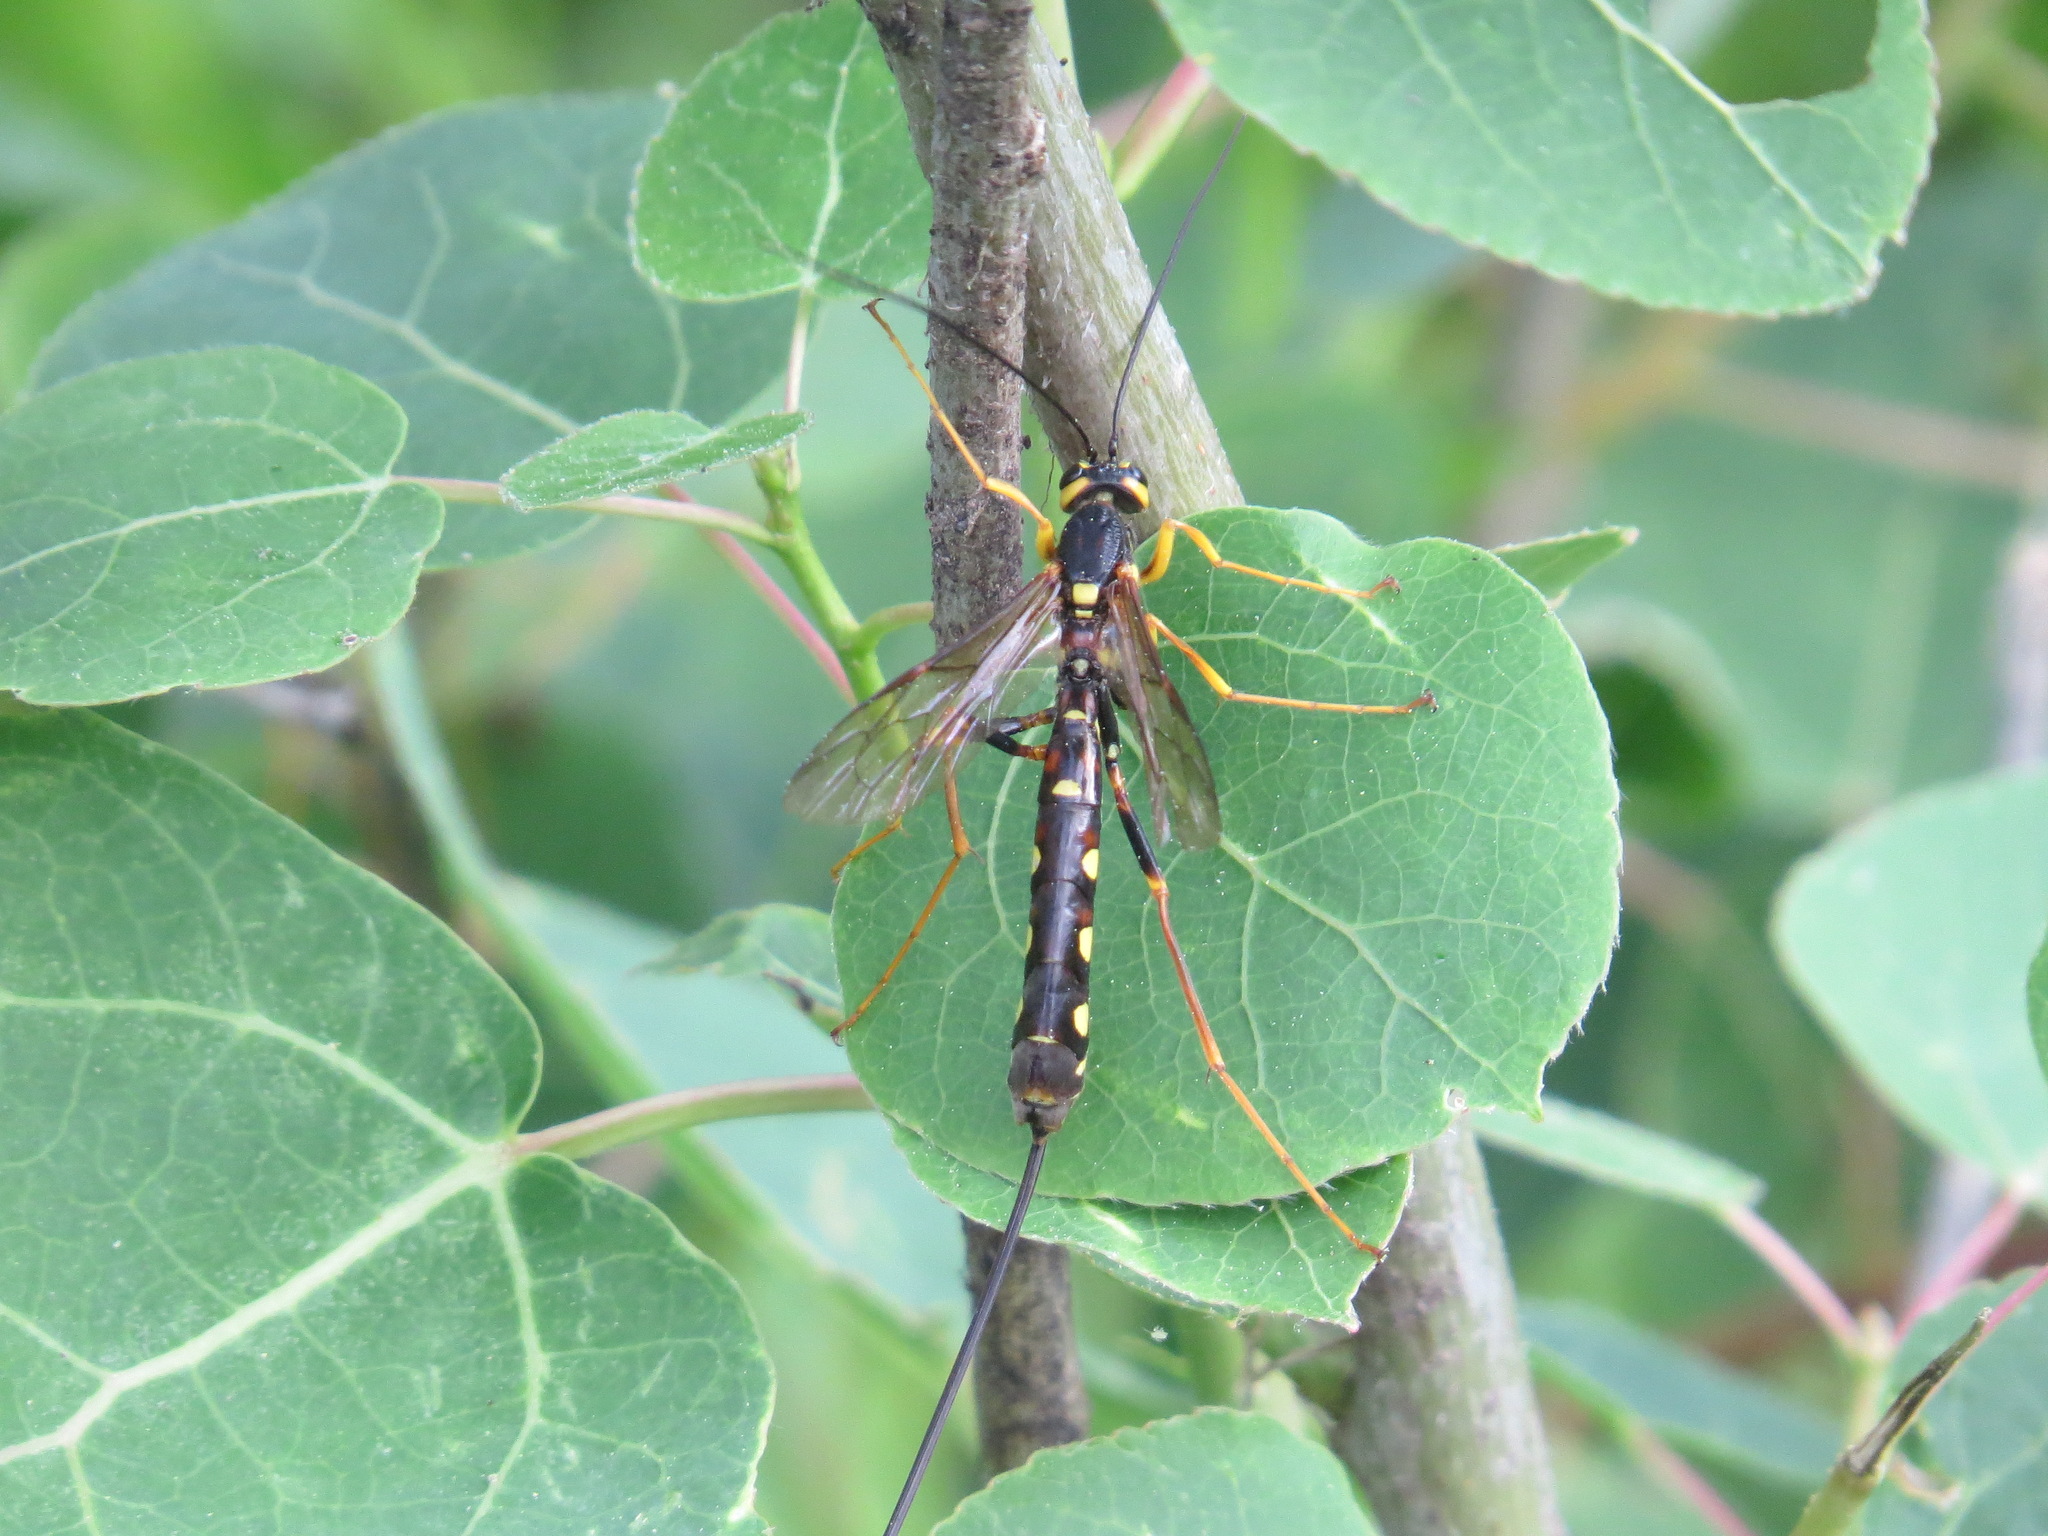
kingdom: Animalia
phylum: Arthropoda
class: Insecta
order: Hymenoptera
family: Ichneumonidae
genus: Megarhyssa
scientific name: Megarhyssa nortoni
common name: Norton's giant ichneumonid wasp
